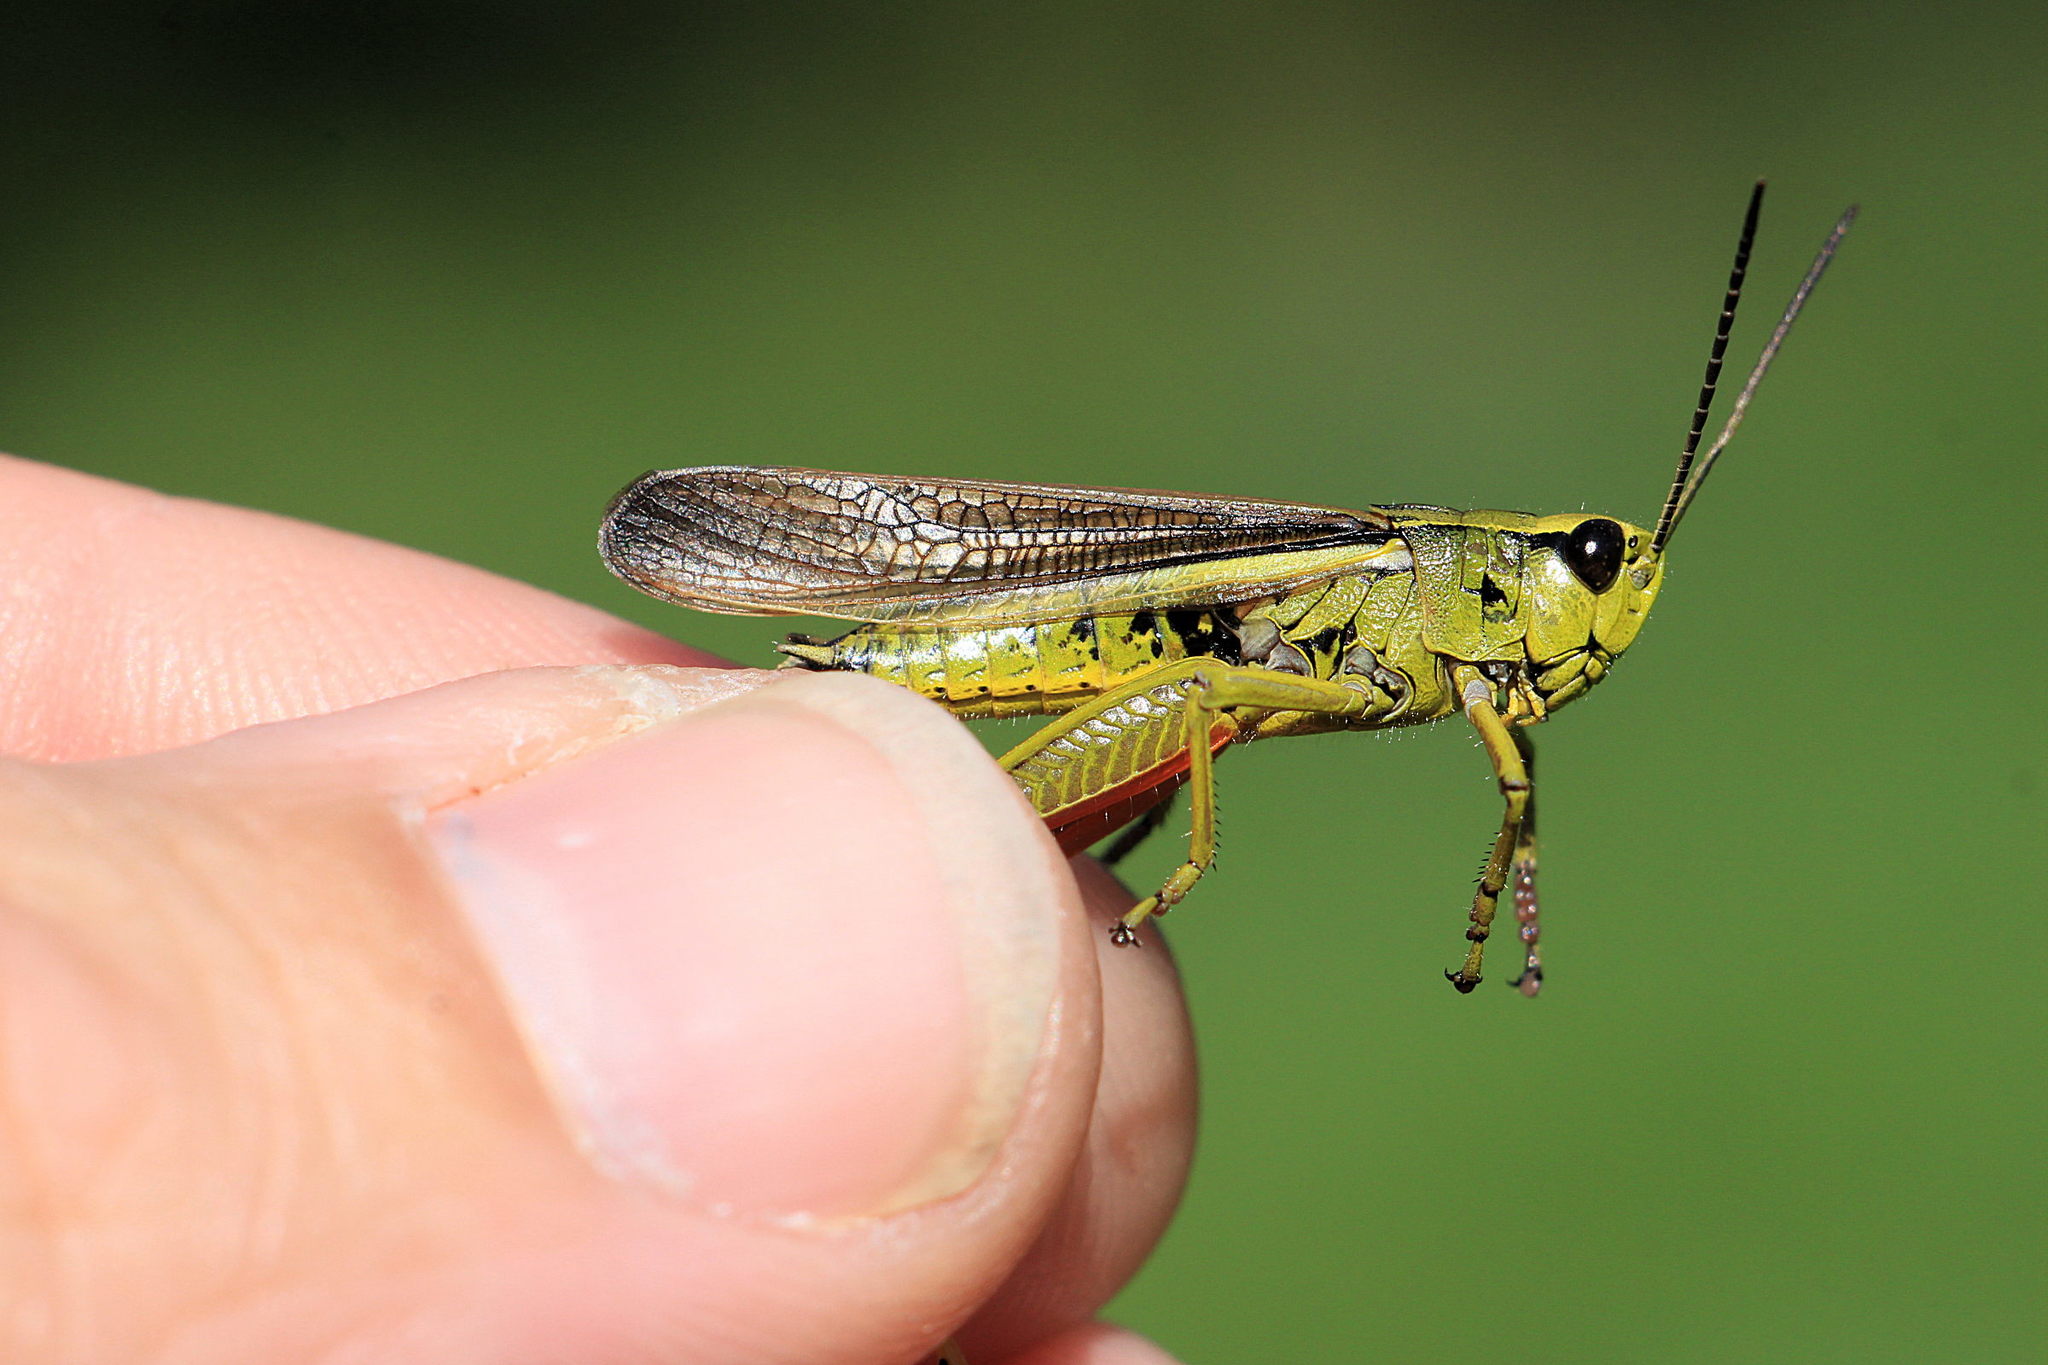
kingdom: Animalia
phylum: Arthropoda
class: Insecta
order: Orthoptera
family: Acrididae
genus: Stethophyma
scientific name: Stethophyma grossum
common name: Large marsh grasshopper
